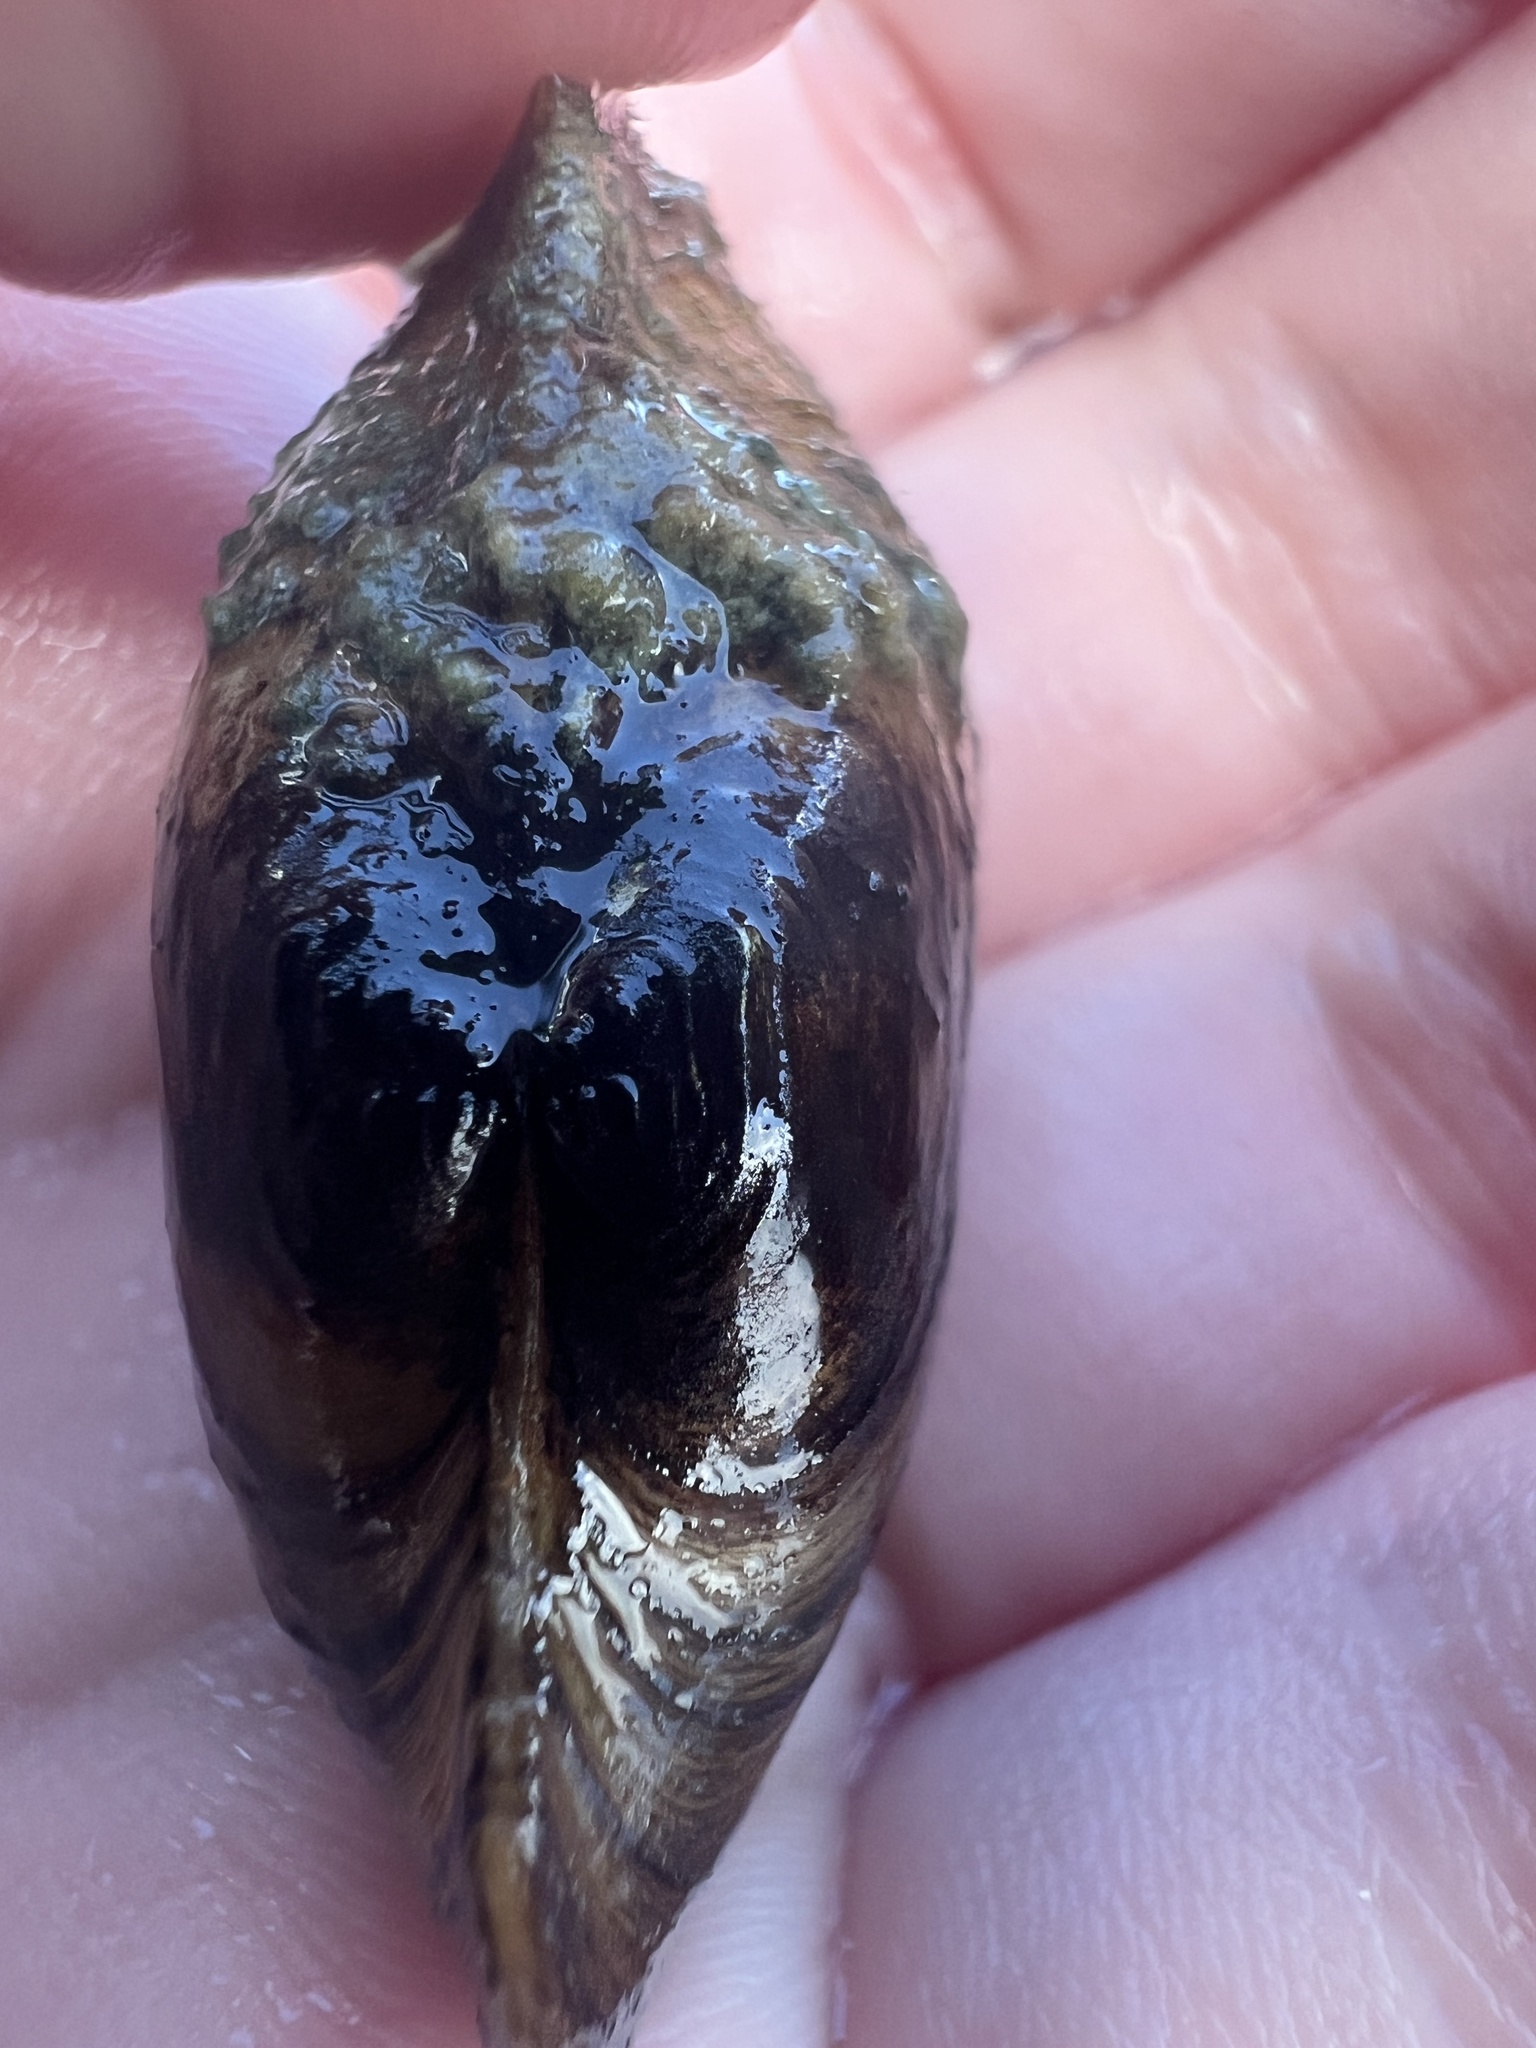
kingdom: Animalia
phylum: Mollusca
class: Bivalvia
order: Unionida
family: Unionidae
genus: Pyganodon
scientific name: Pyganodon grandis
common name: Giant floater
